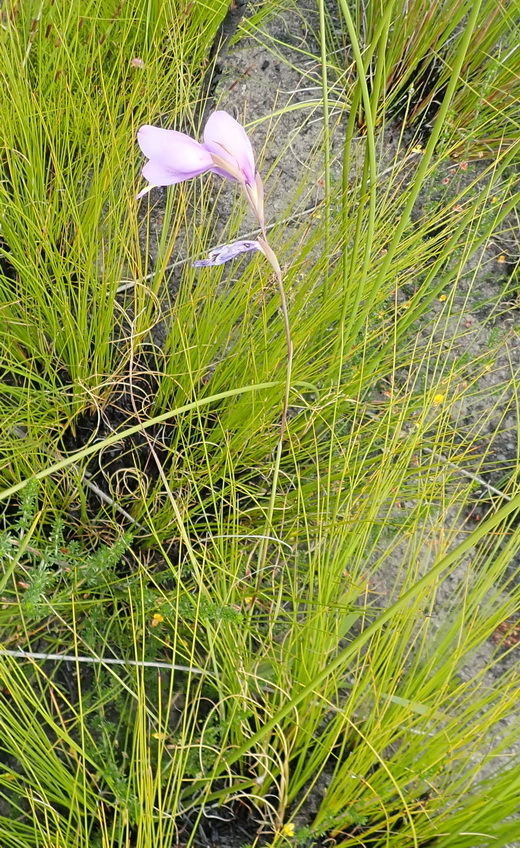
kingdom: Plantae
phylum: Tracheophyta
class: Liliopsida
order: Asparagales
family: Iridaceae
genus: Gladiolus
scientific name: Gladiolus rogersii
